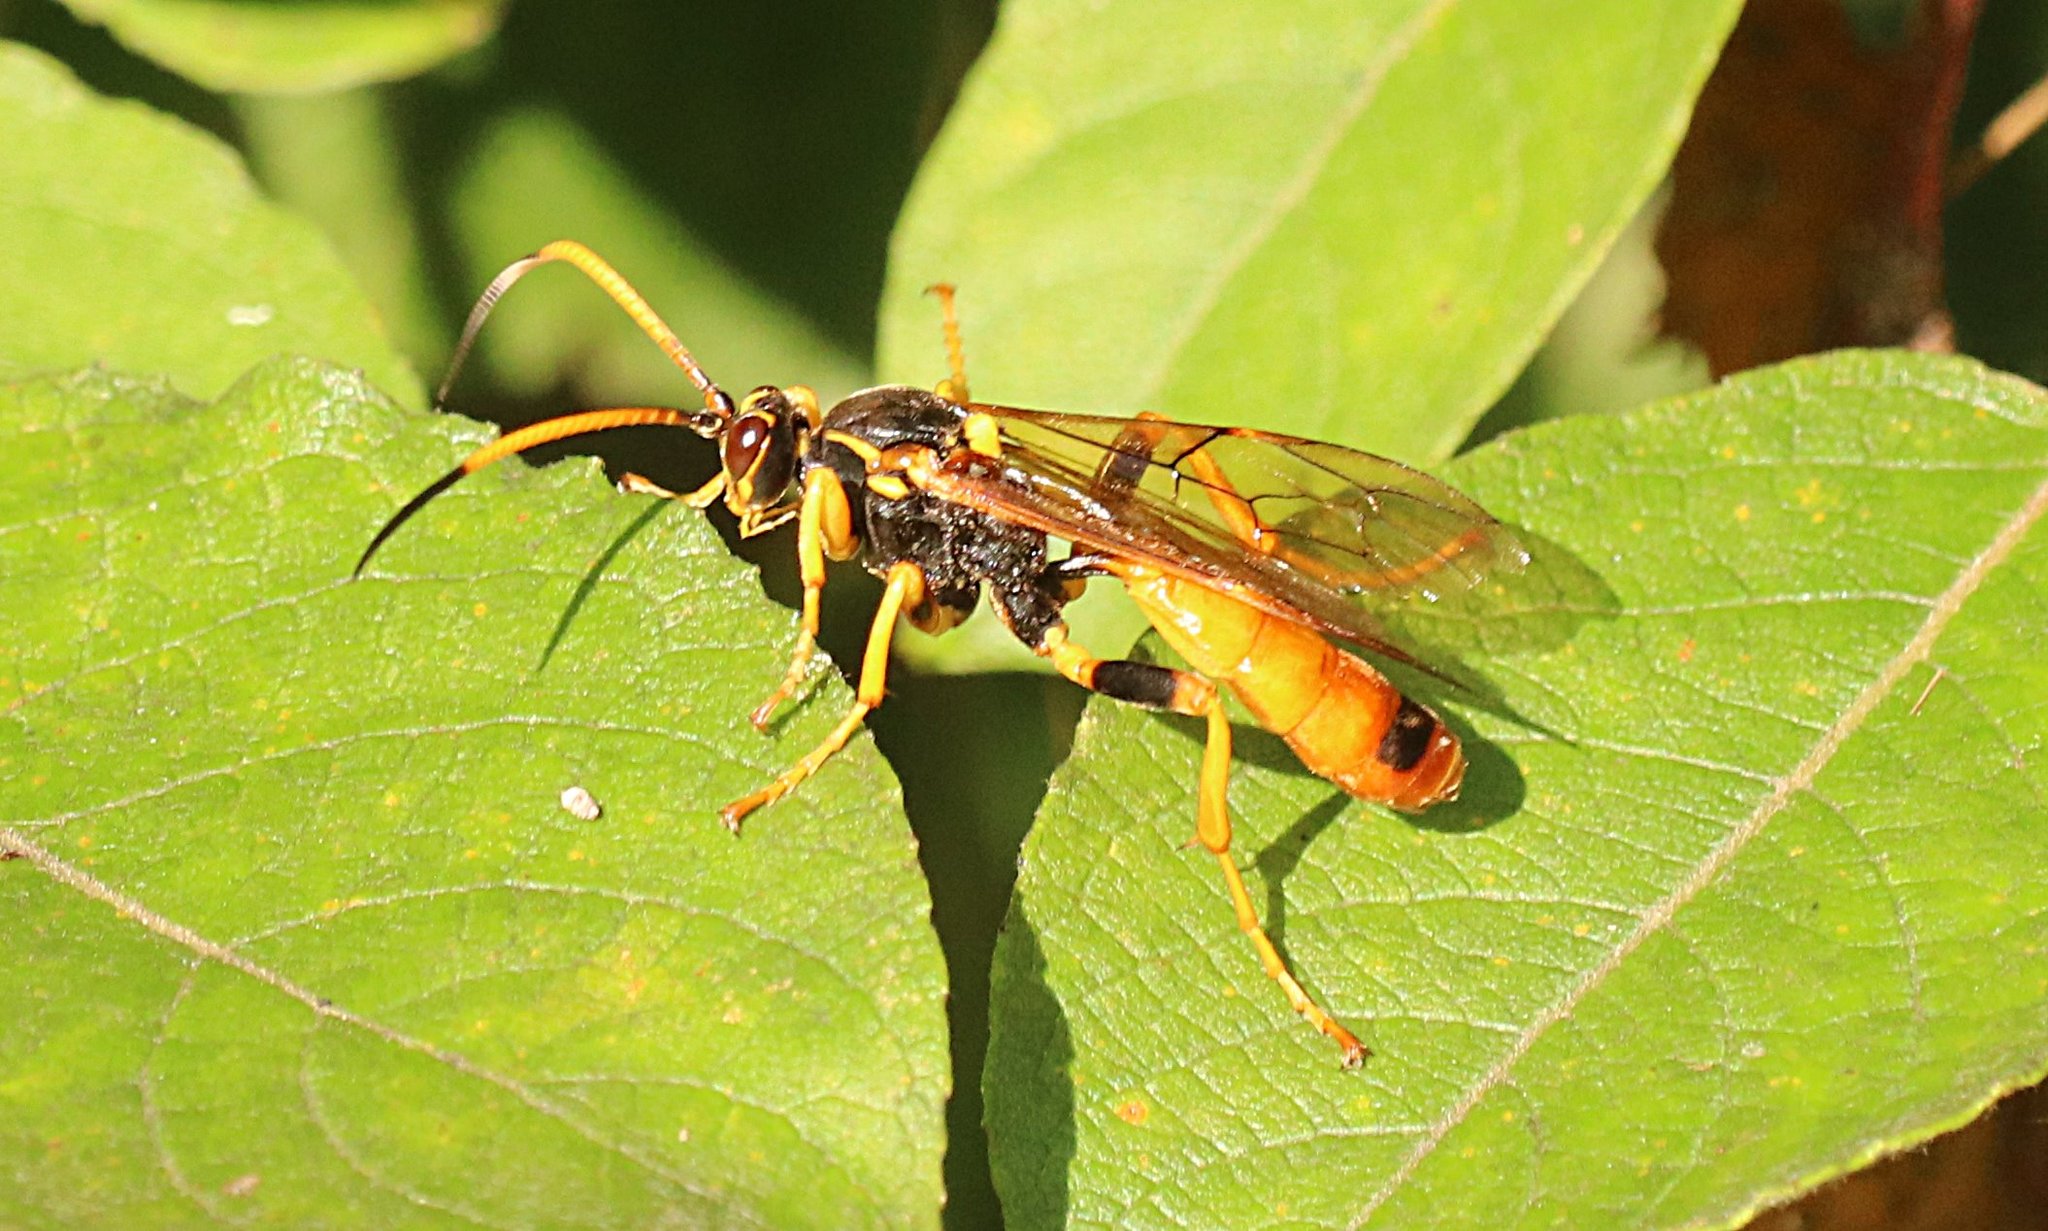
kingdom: Animalia
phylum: Arthropoda
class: Insecta
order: Hymenoptera
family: Ichneumonidae
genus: Callajoppa
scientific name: Callajoppa cirrogaster
